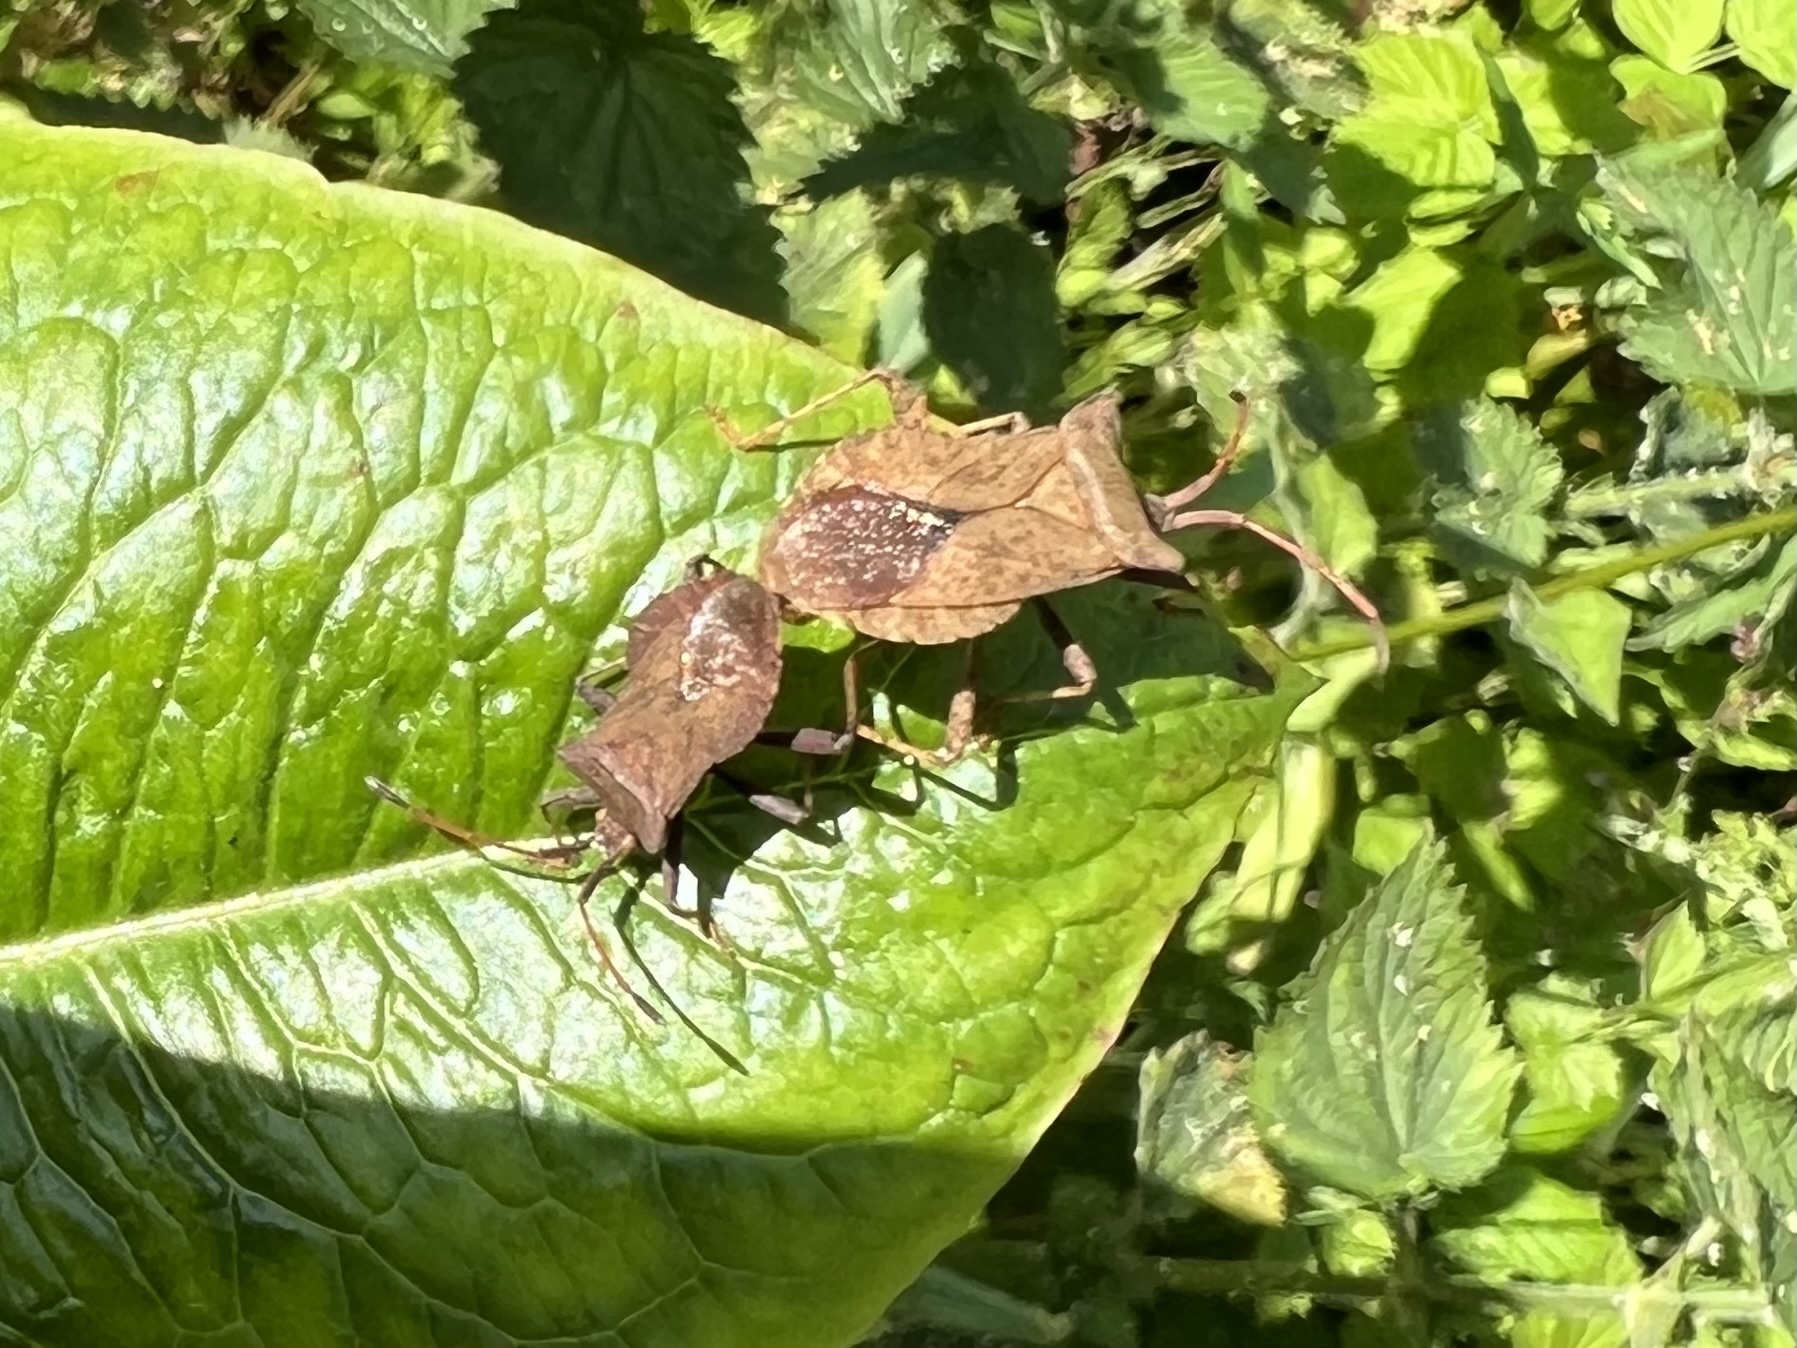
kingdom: Animalia
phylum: Arthropoda
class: Insecta
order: Hemiptera
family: Coreidae
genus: Coreus
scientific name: Coreus marginatus
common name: Dock bug
